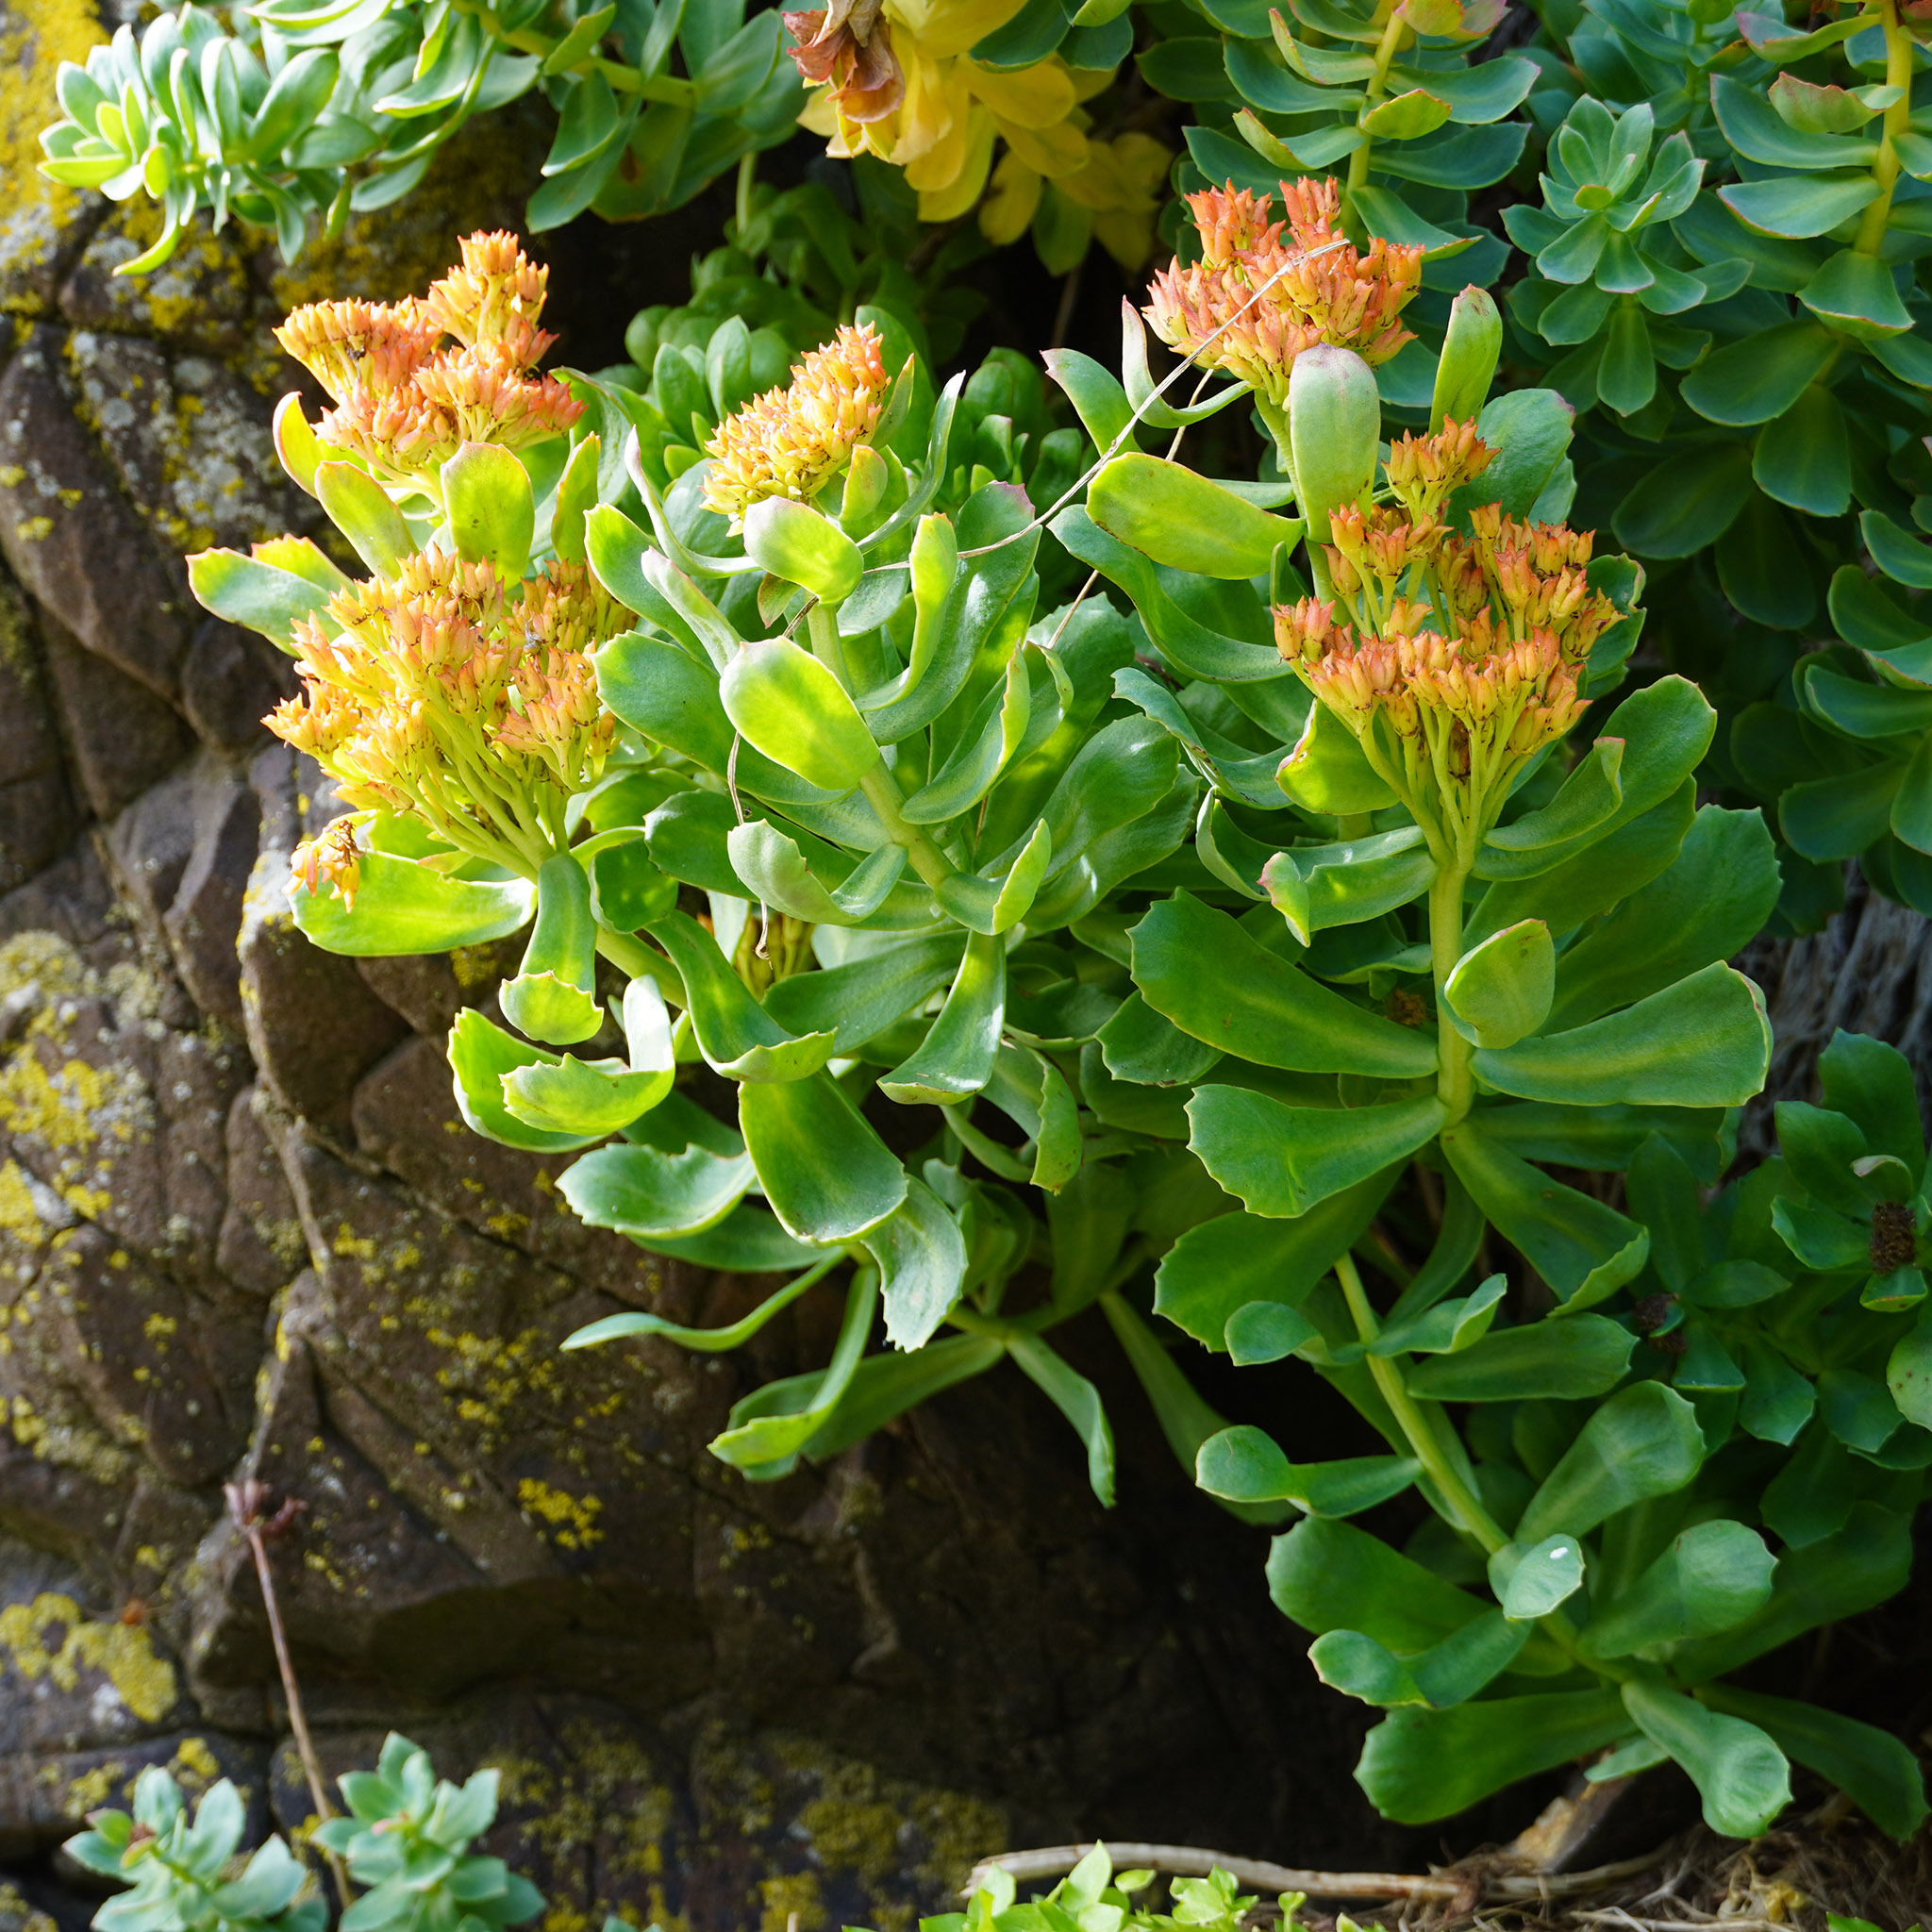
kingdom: Plantae
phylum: Tracheophyta
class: Magnoliopsida
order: Saxifragales
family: Crassulaceae
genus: Rhodiola
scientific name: Rhodiola rosea
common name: Roseroot
